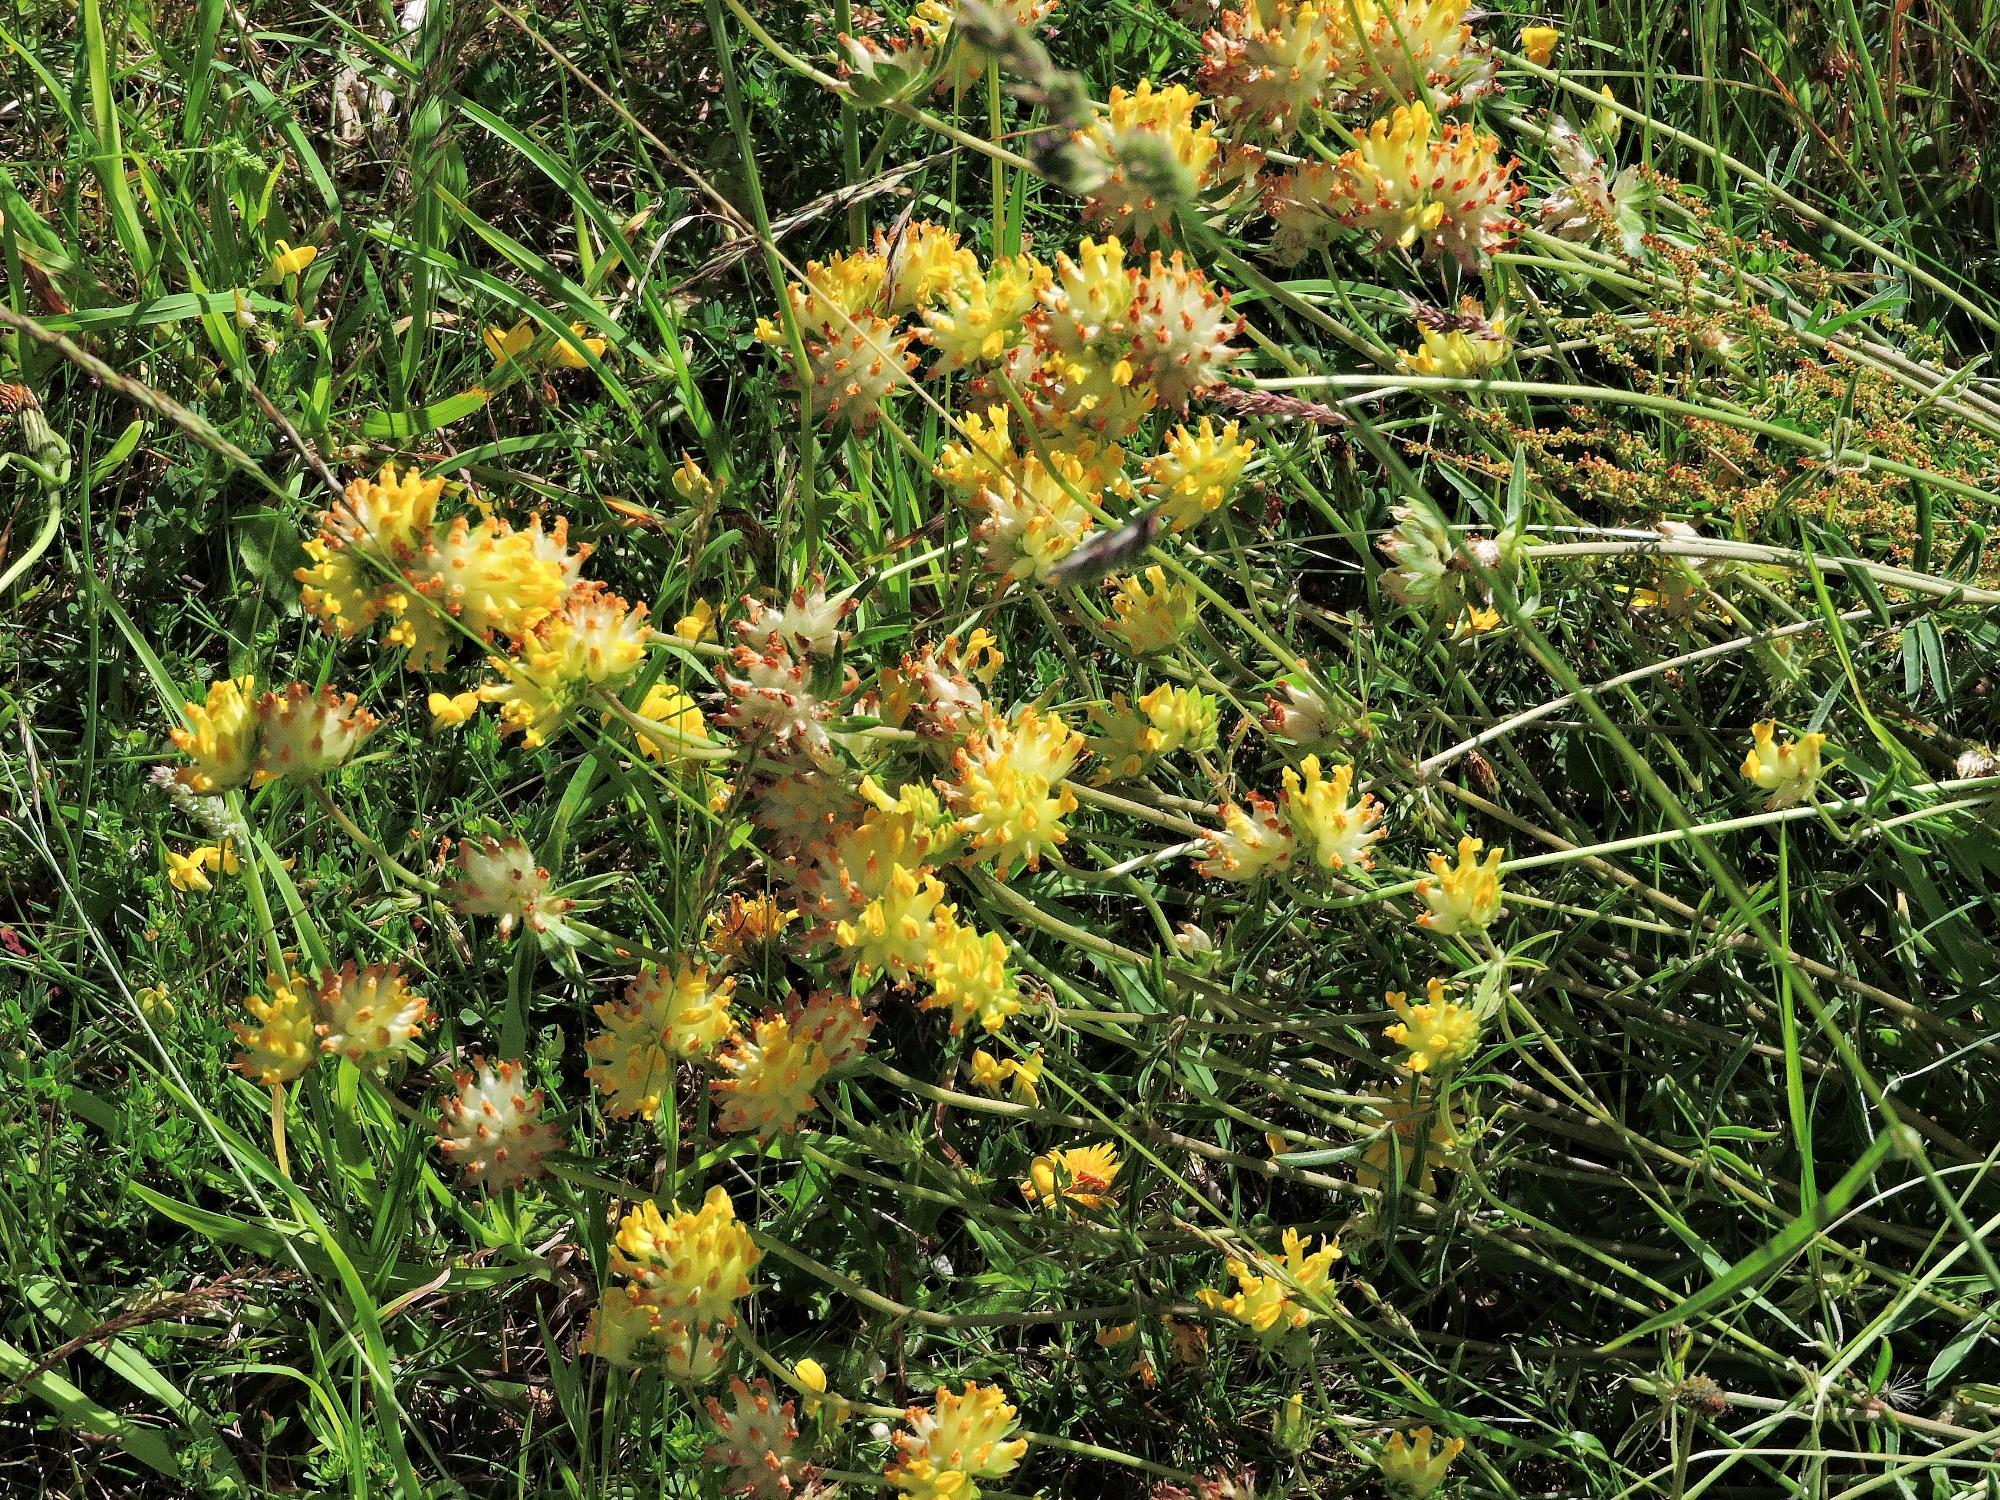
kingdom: Plantae
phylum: Tracheophyta
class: Magnoliopsida
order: Fabales
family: Fabaceae
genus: Anthyllis
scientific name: Anthyllis vulneraria
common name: Kidney vetch
